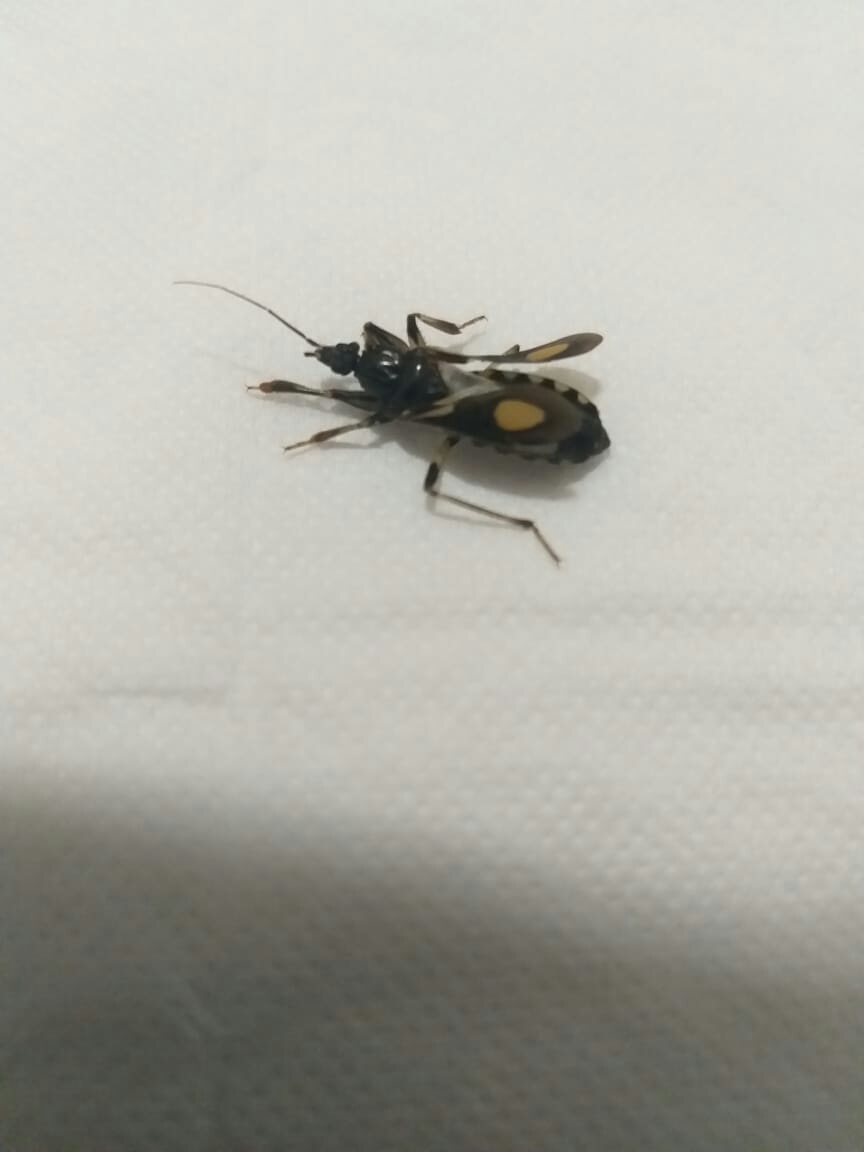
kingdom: Animalia
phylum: Arthropoda
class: Insecta
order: Hemiptera
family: Reduviidae
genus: Rasahus
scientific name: Rasahus hamatus
